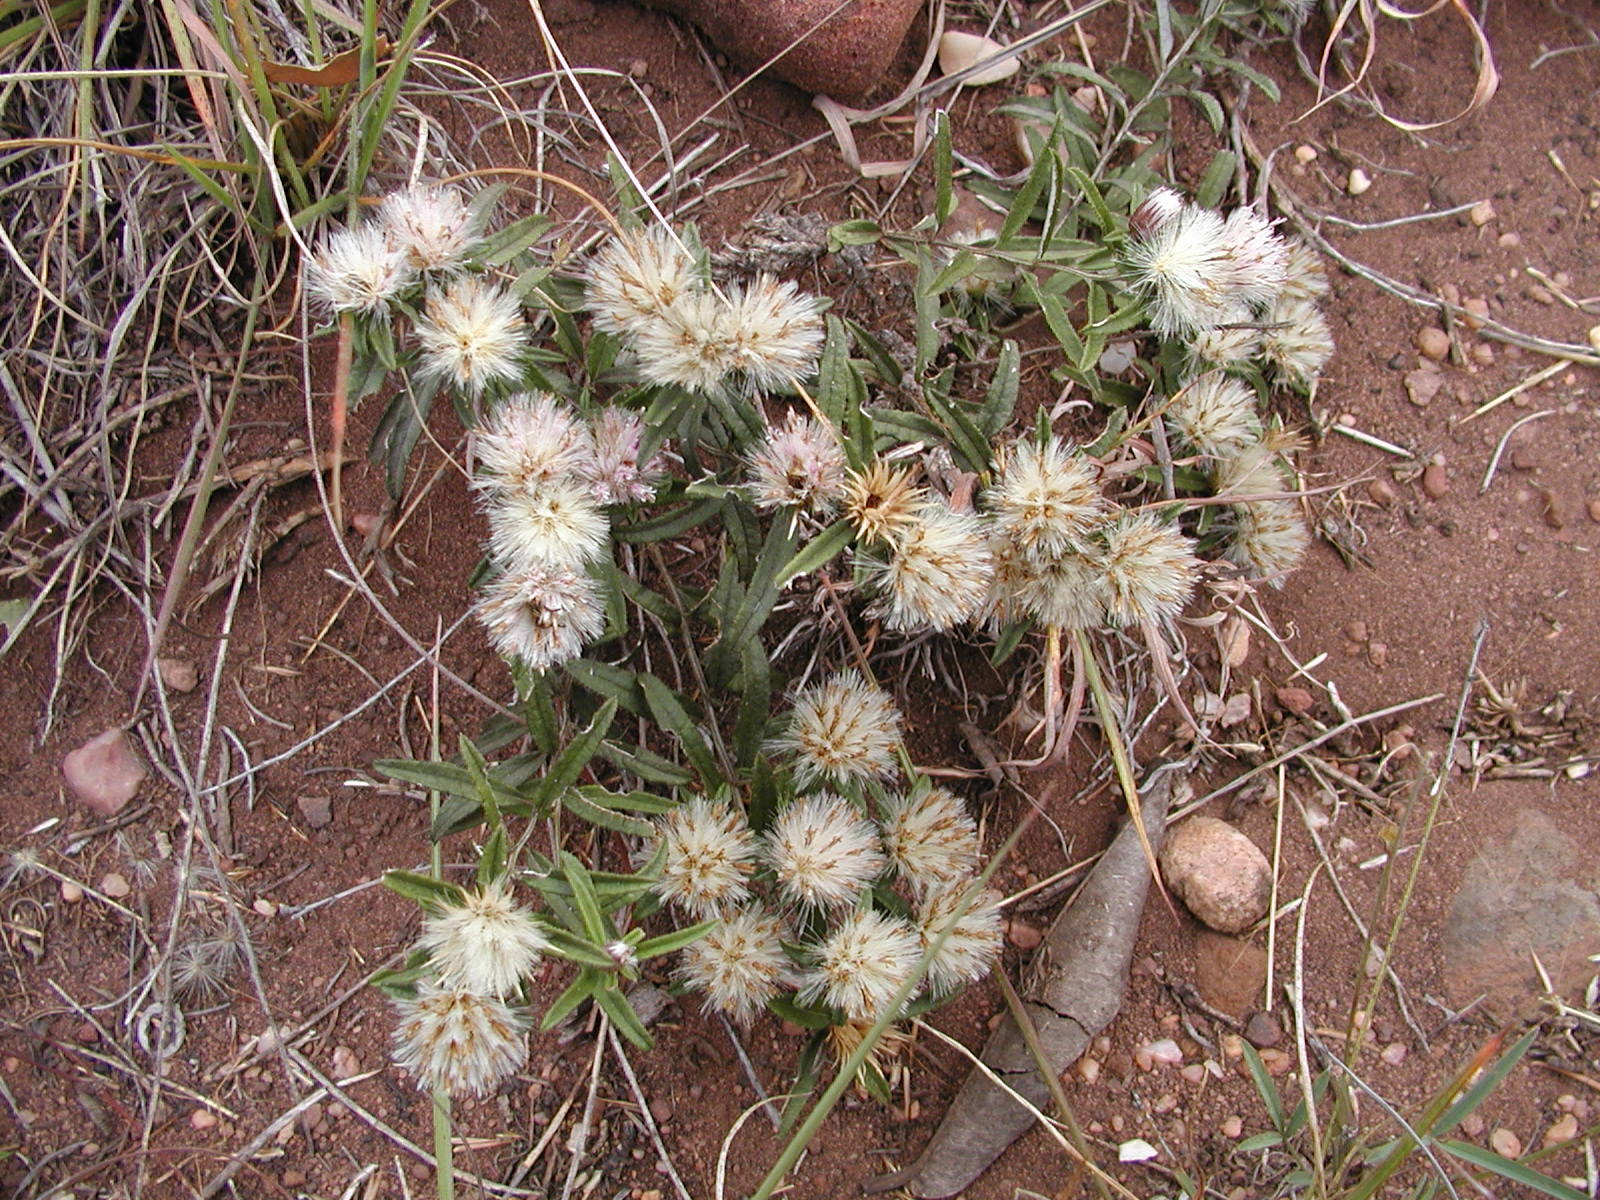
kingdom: Plantae
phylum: Tracheophyta
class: Magnoliopsida
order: Asterales
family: Asteraceae
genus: Dicoma
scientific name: Dicoma anomala
